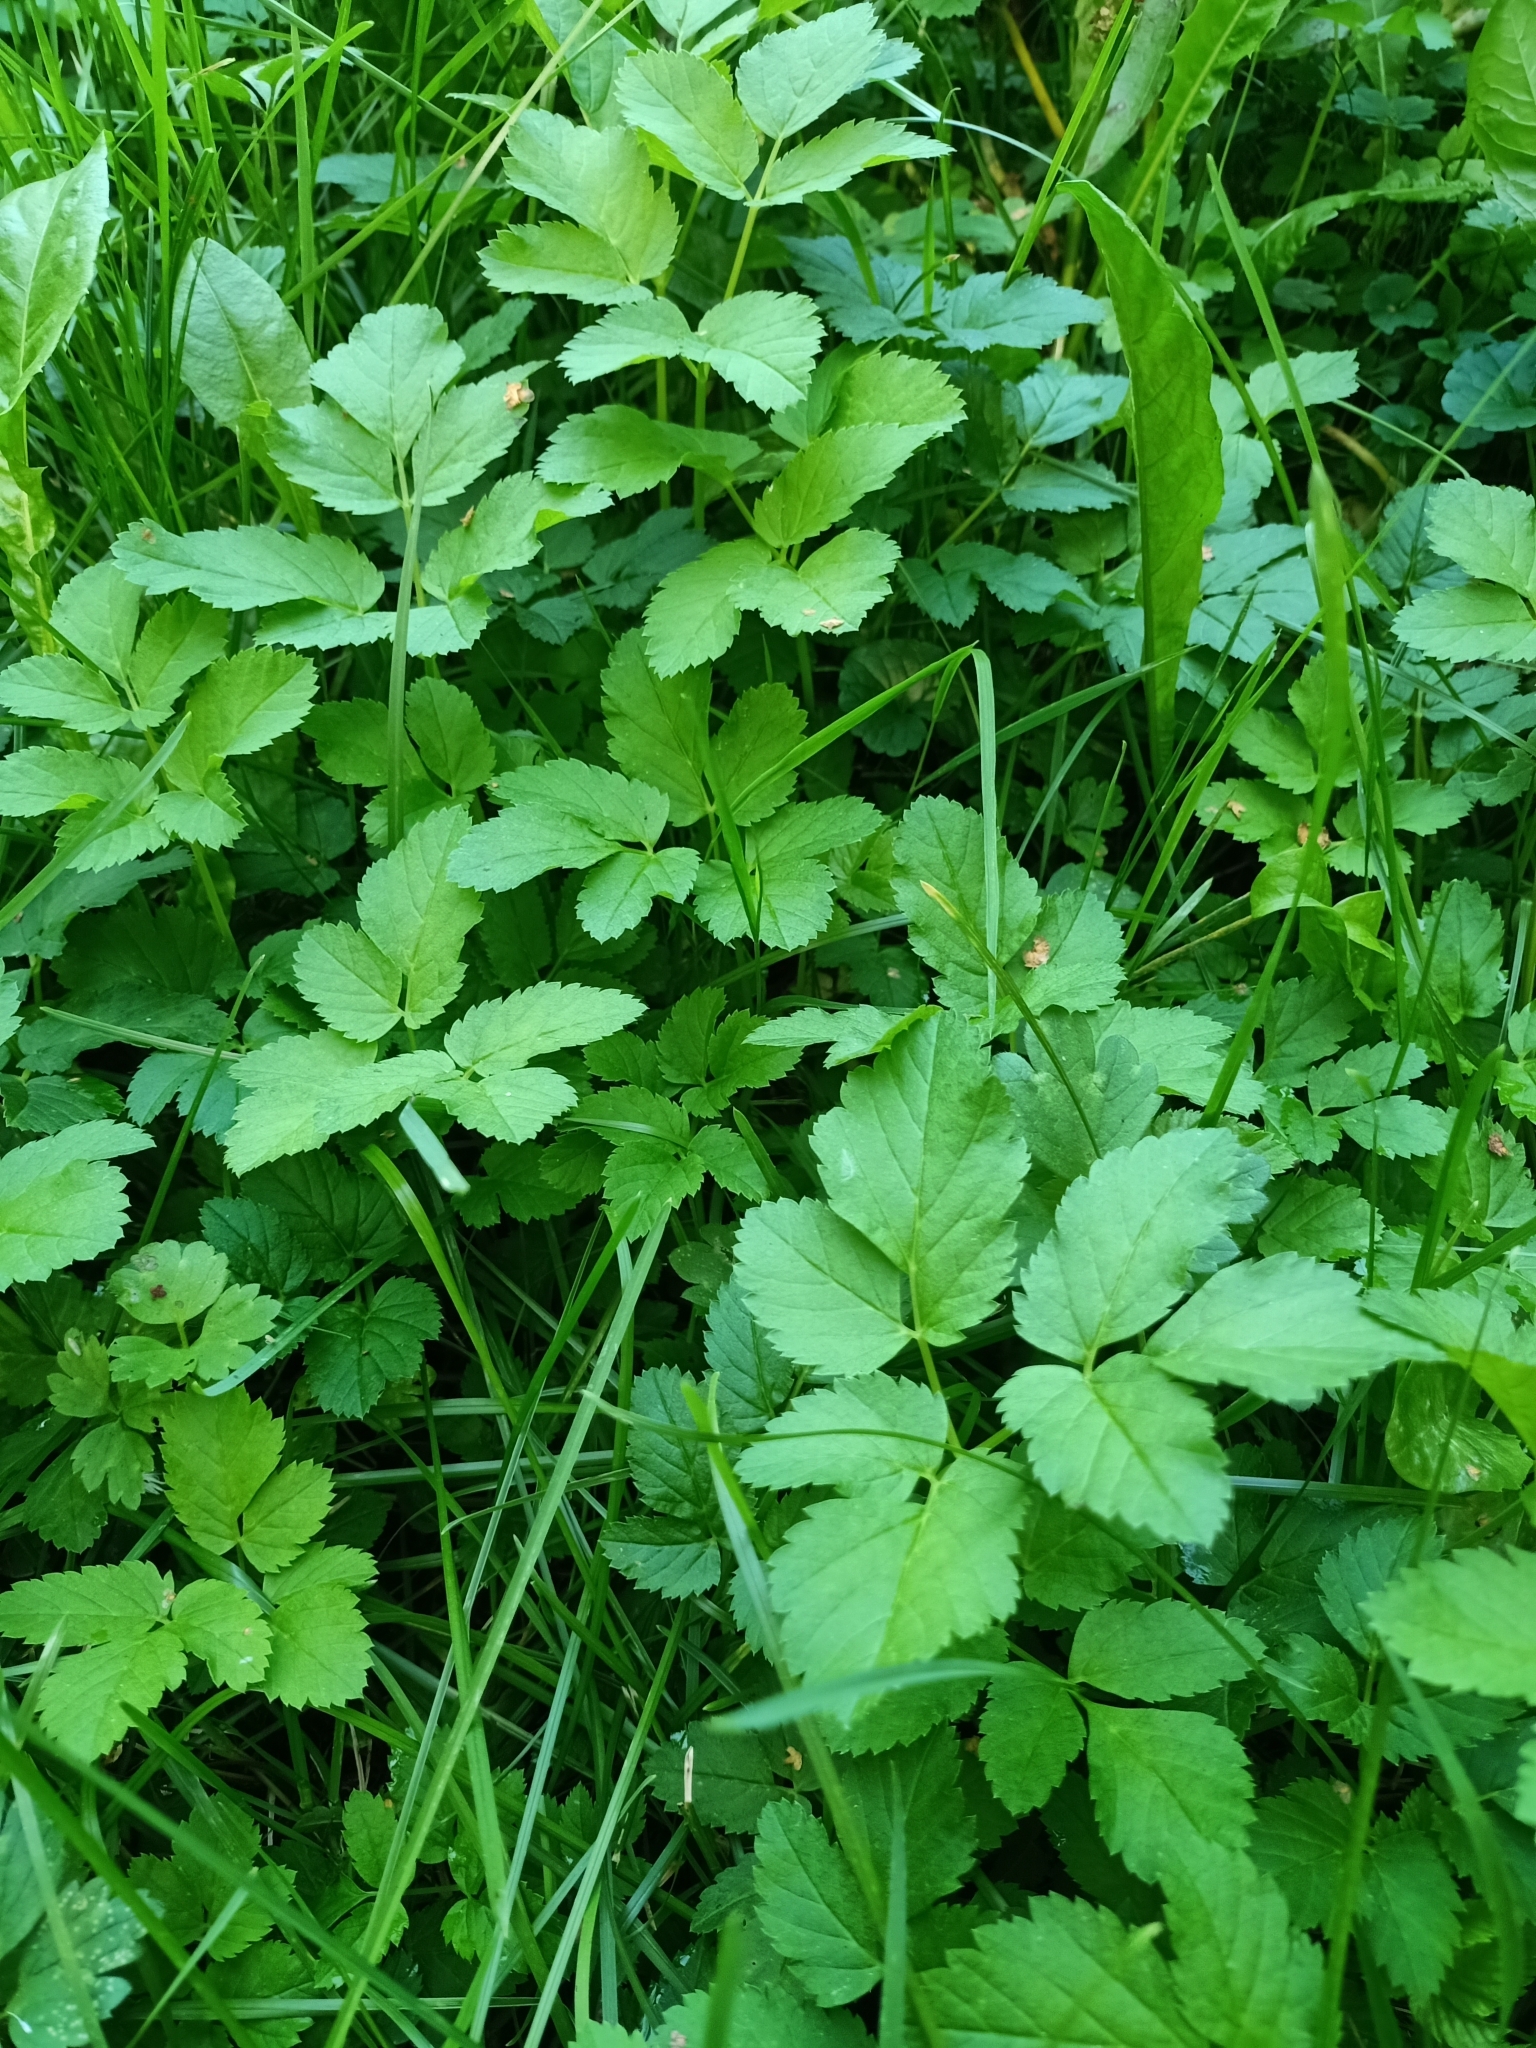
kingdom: Plantae
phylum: Tracheophyta
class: Magnoliopsida
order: Apiales
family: Apiaceae
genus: Aegopodium
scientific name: Aegopodium podagraria
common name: Ground-elder
